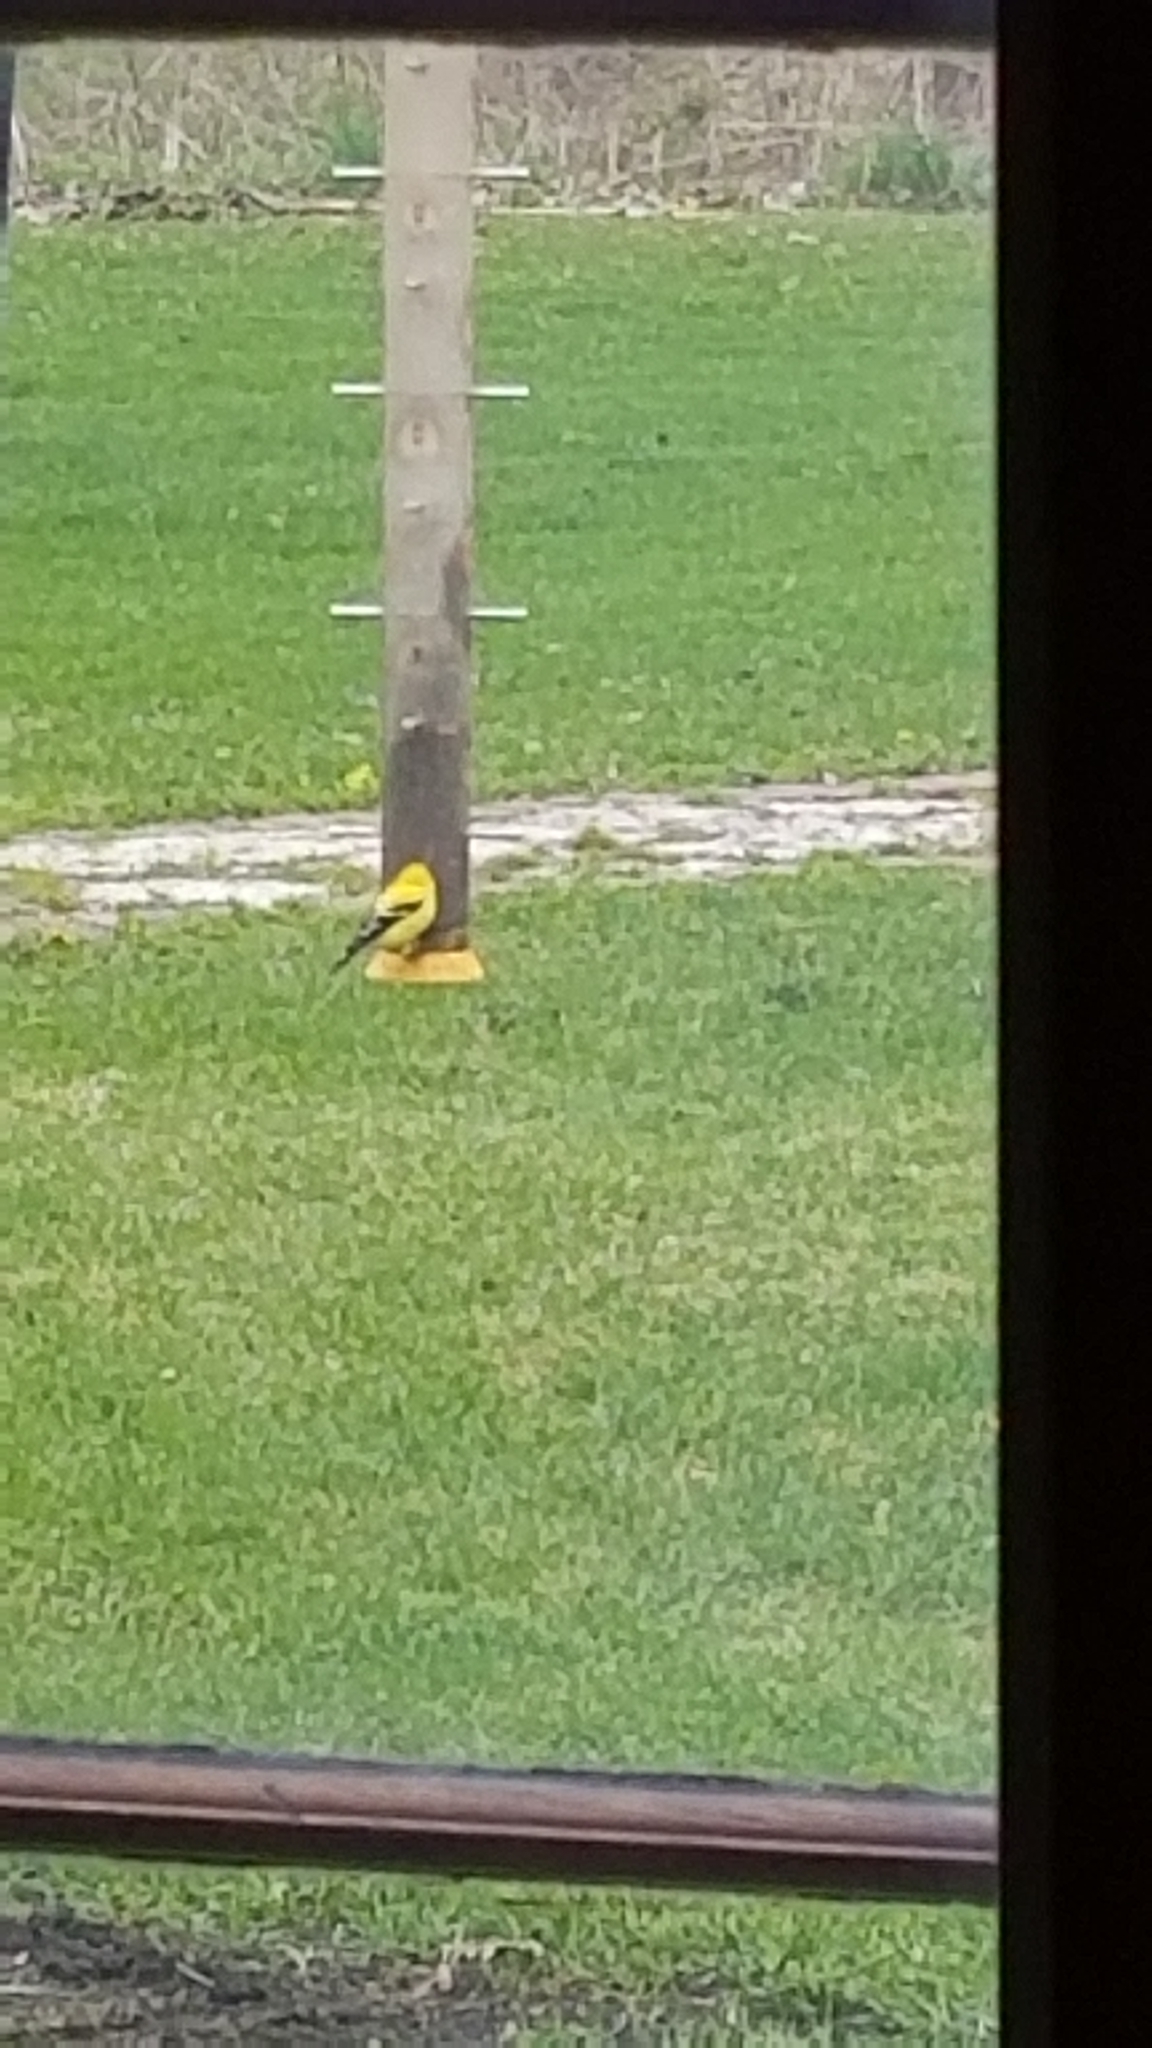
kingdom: Animalia
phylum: Chordata
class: Aves
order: Passeriformes
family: Fringillidae
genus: Spinus
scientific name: Spinus tristis
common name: American goldfinch
